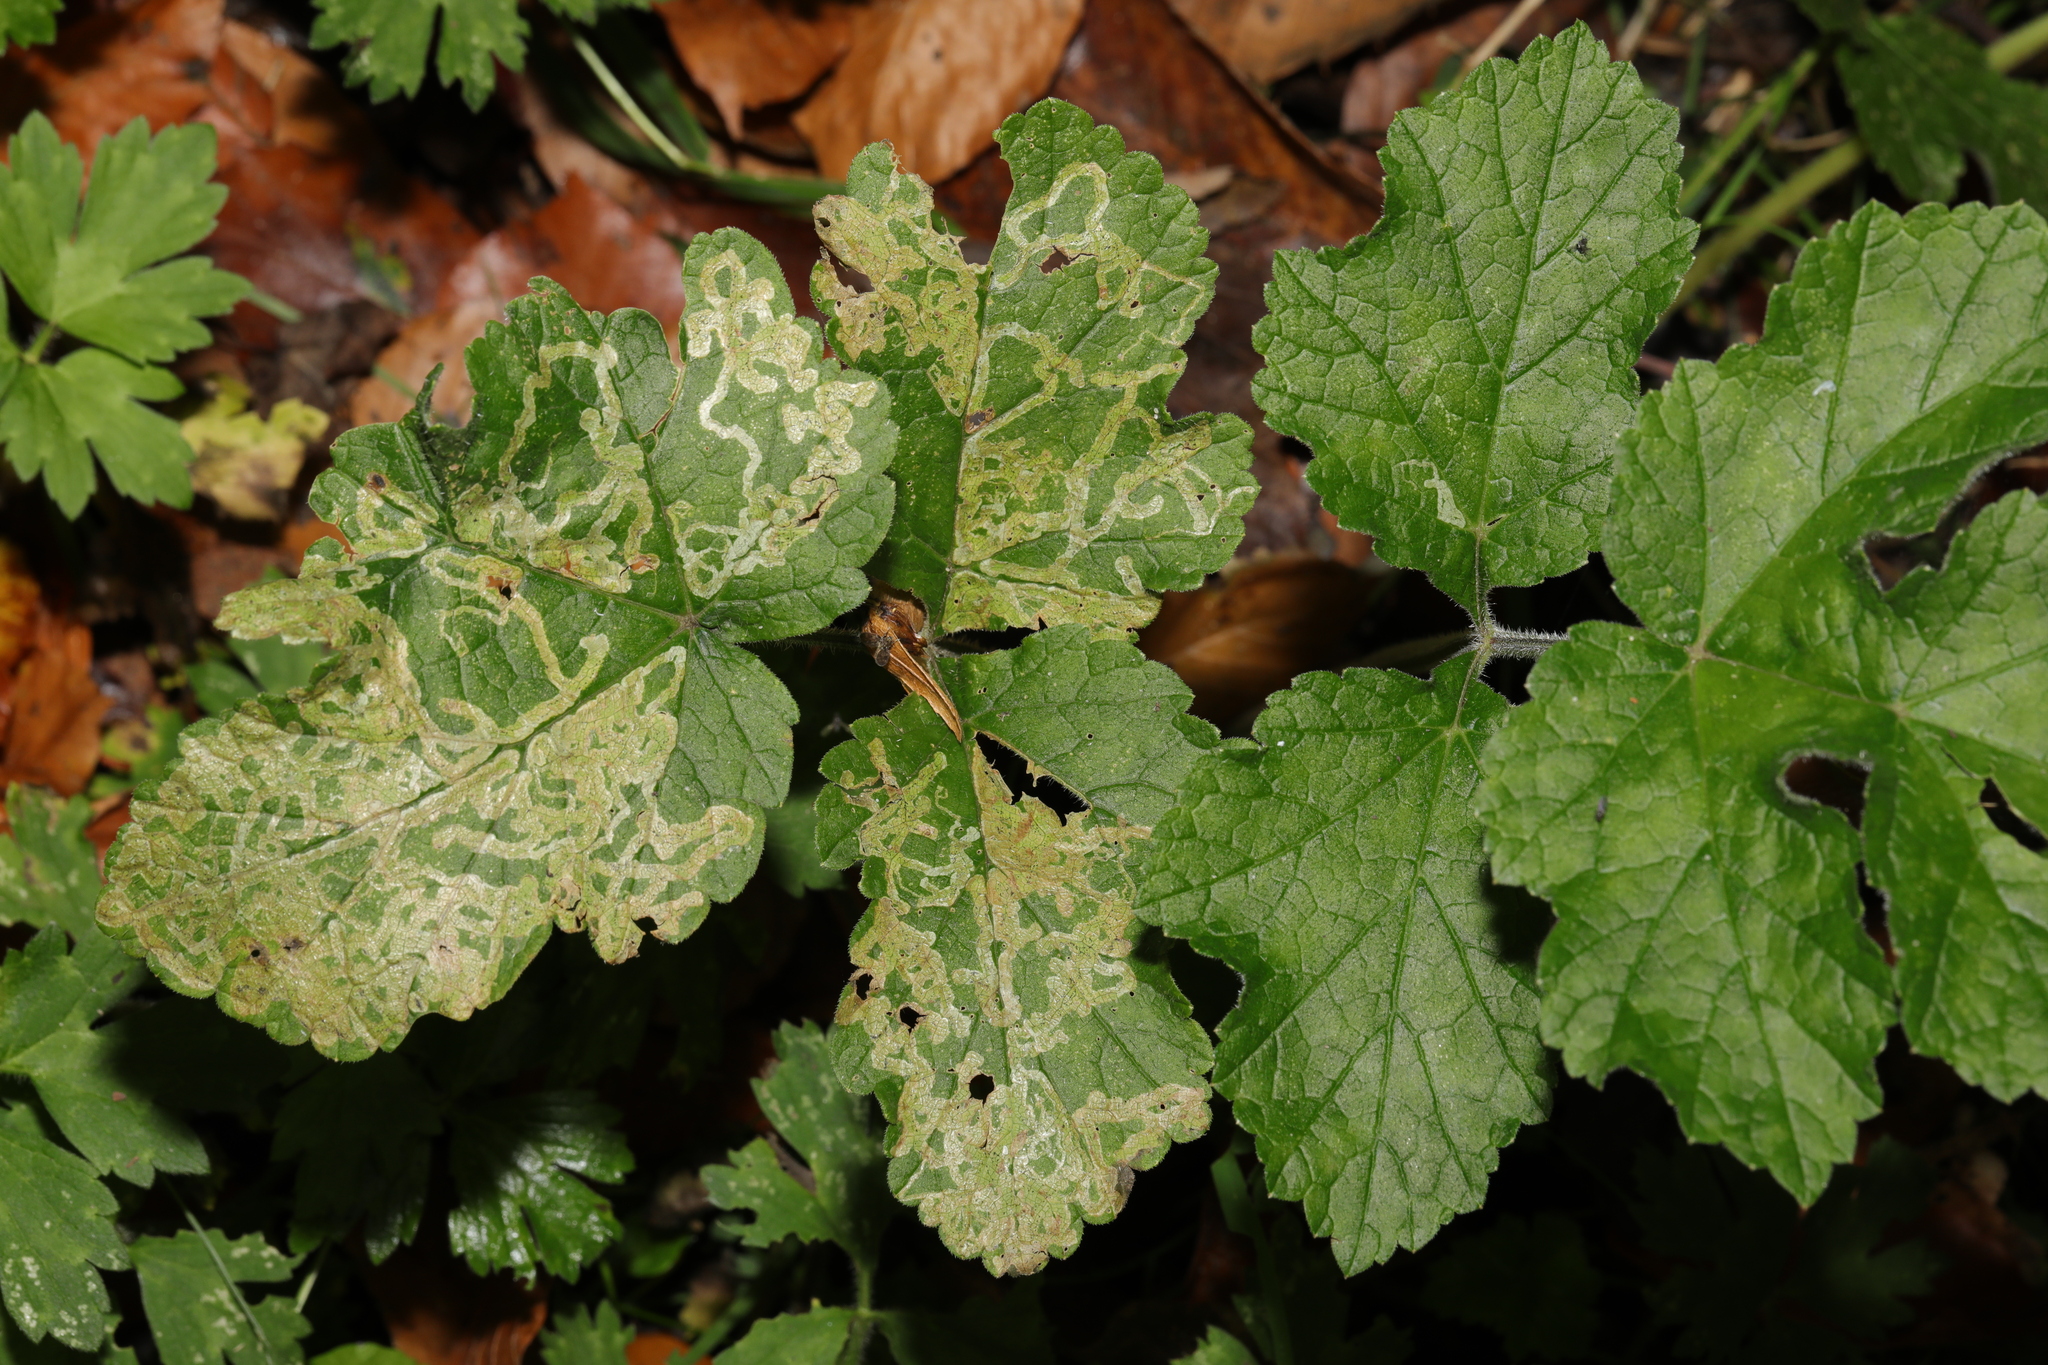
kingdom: Plantae
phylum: Tracheophyta
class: Magnoliopsida
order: Apiales
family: Apiaceae
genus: Heracleum
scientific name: Heracleum sphondylium
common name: Hogweed
